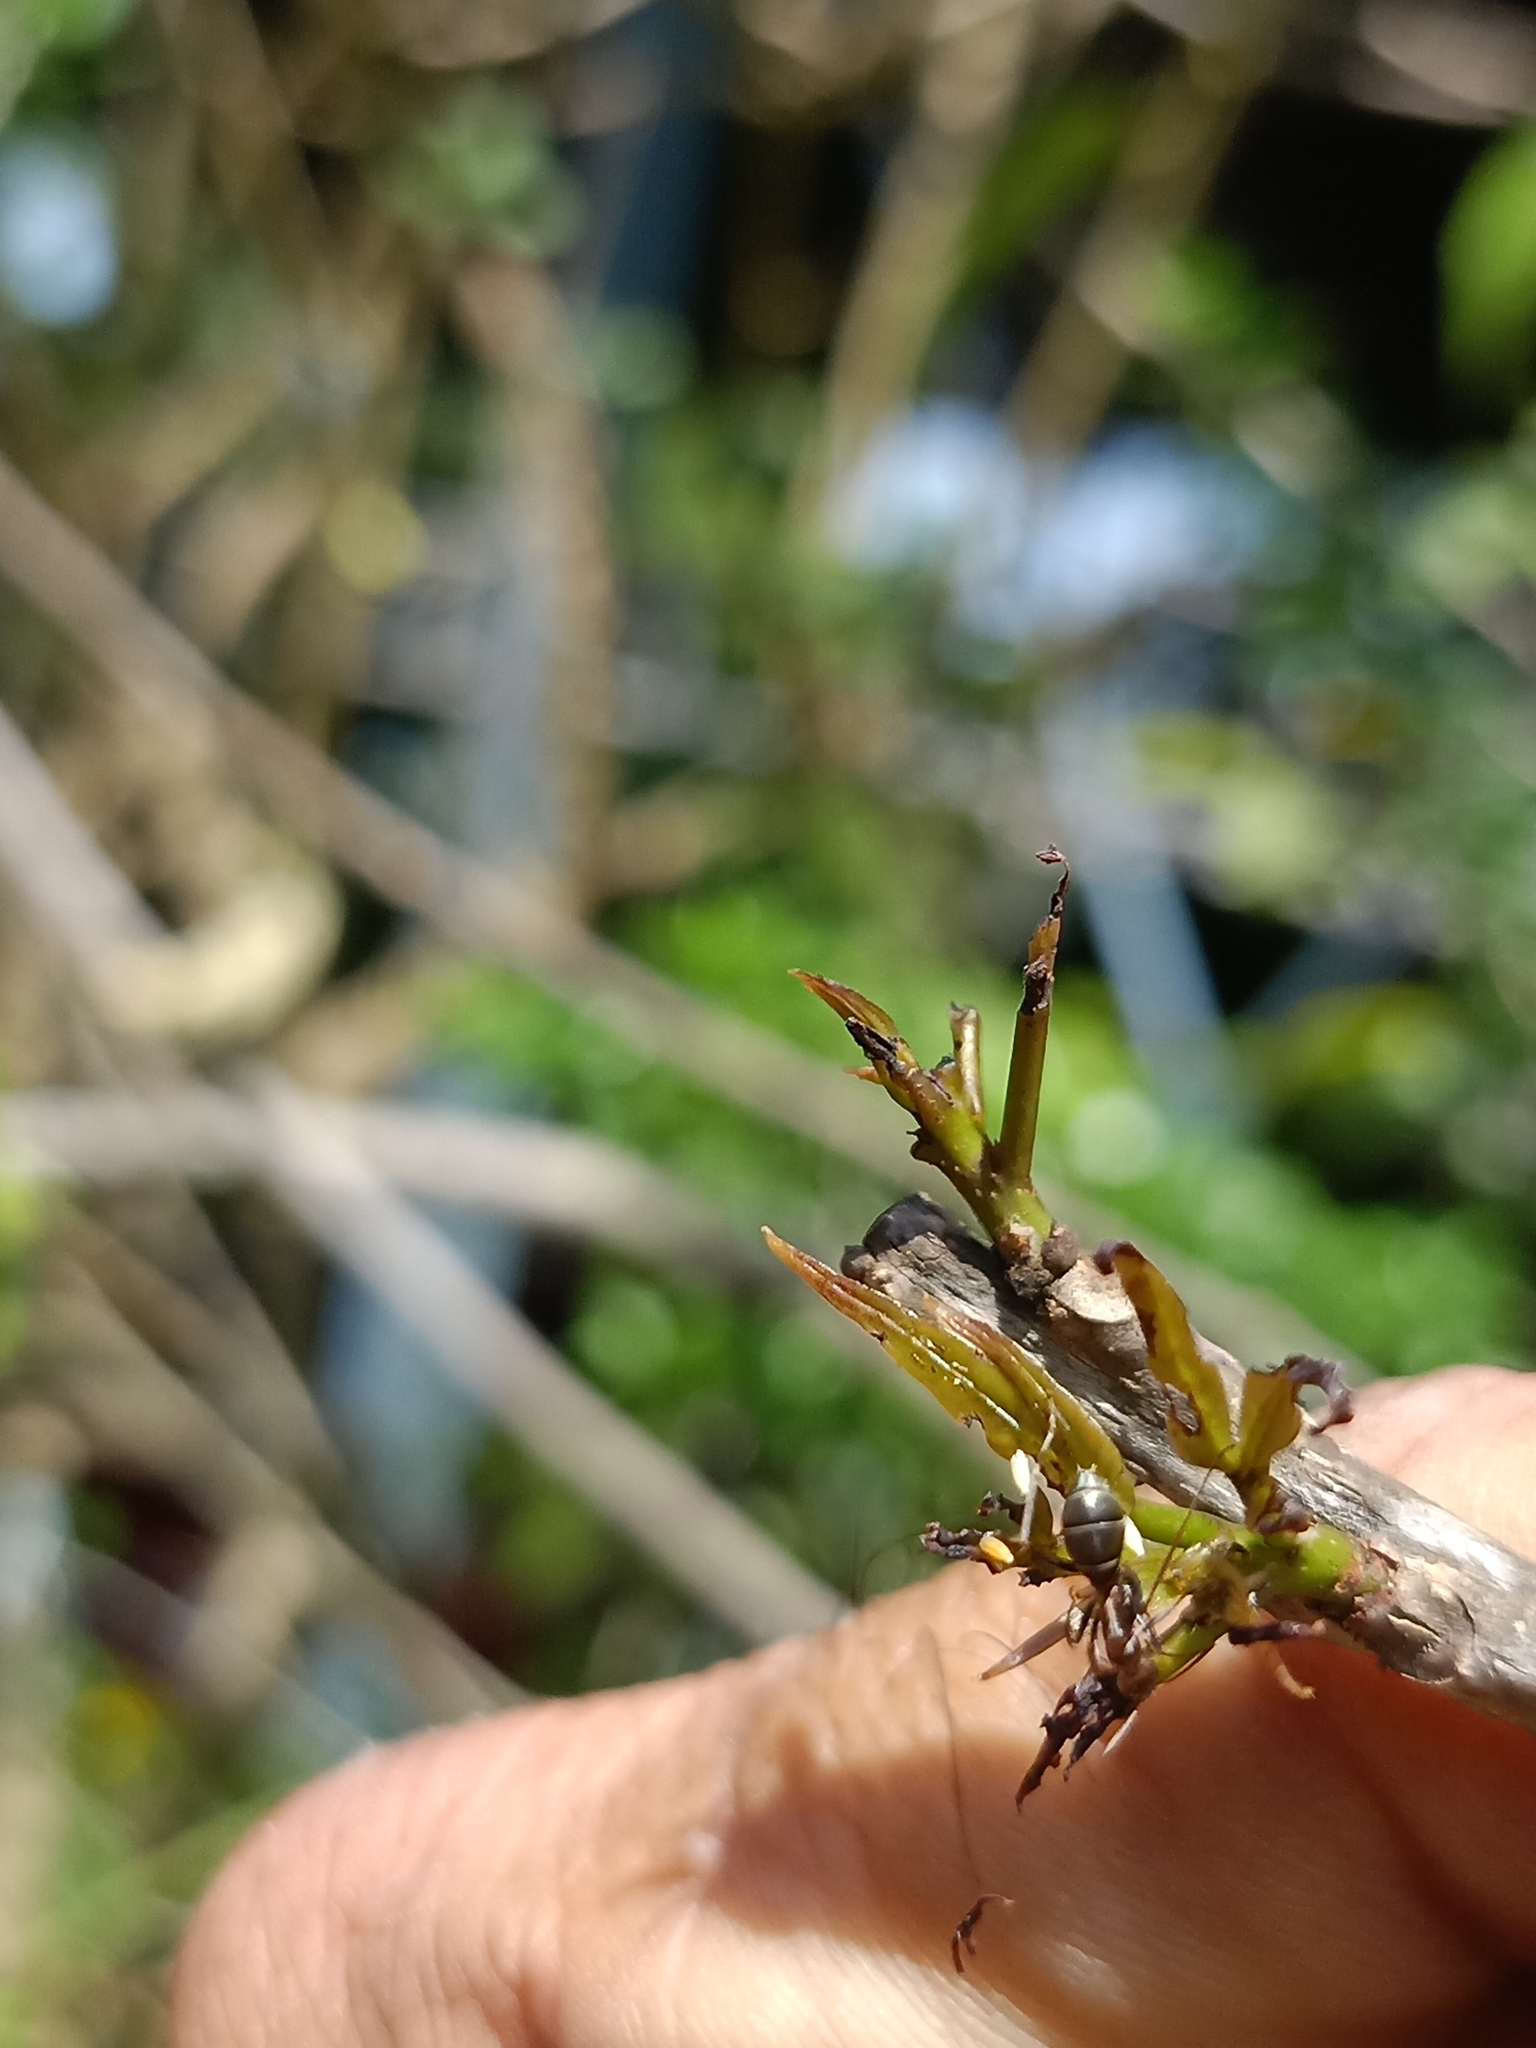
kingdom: Animalia
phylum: Arthropoda
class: Insecta
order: Lepidoptera
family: Pieridae
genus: Appias
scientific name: Appias lyncida
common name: Chocolate albatross
